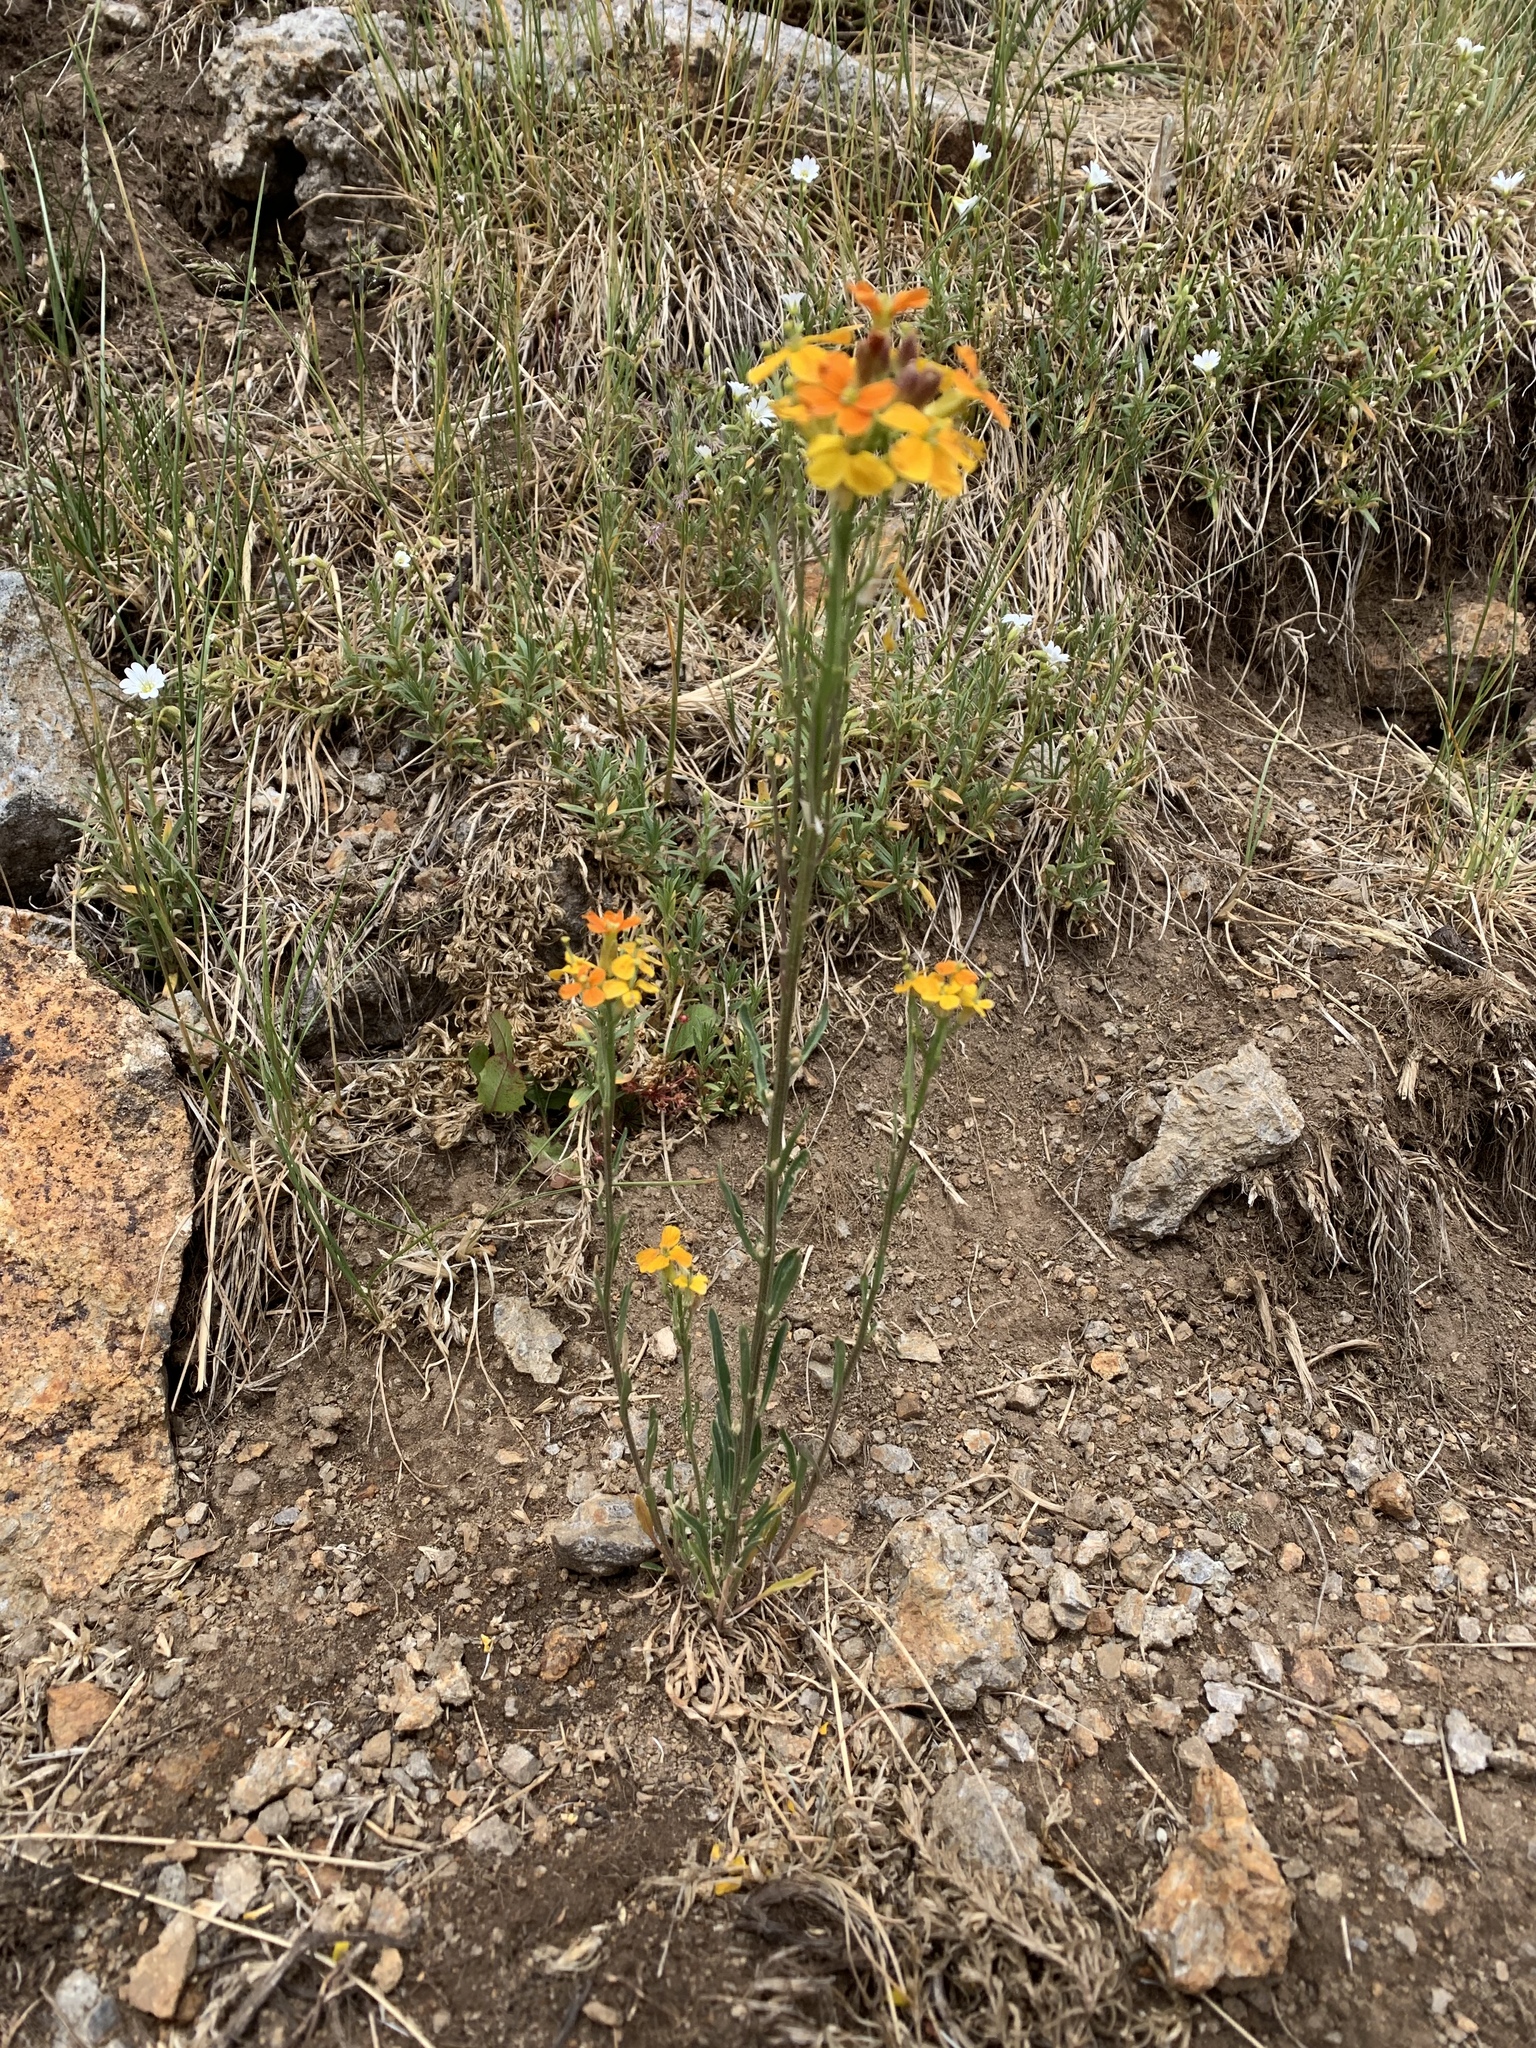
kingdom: Plantae
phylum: Tracheophyta
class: Magnoliopsida
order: Brassicales
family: Brassicaceae
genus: Erysimum
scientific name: Erysimum capitatum
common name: Western wallflower
